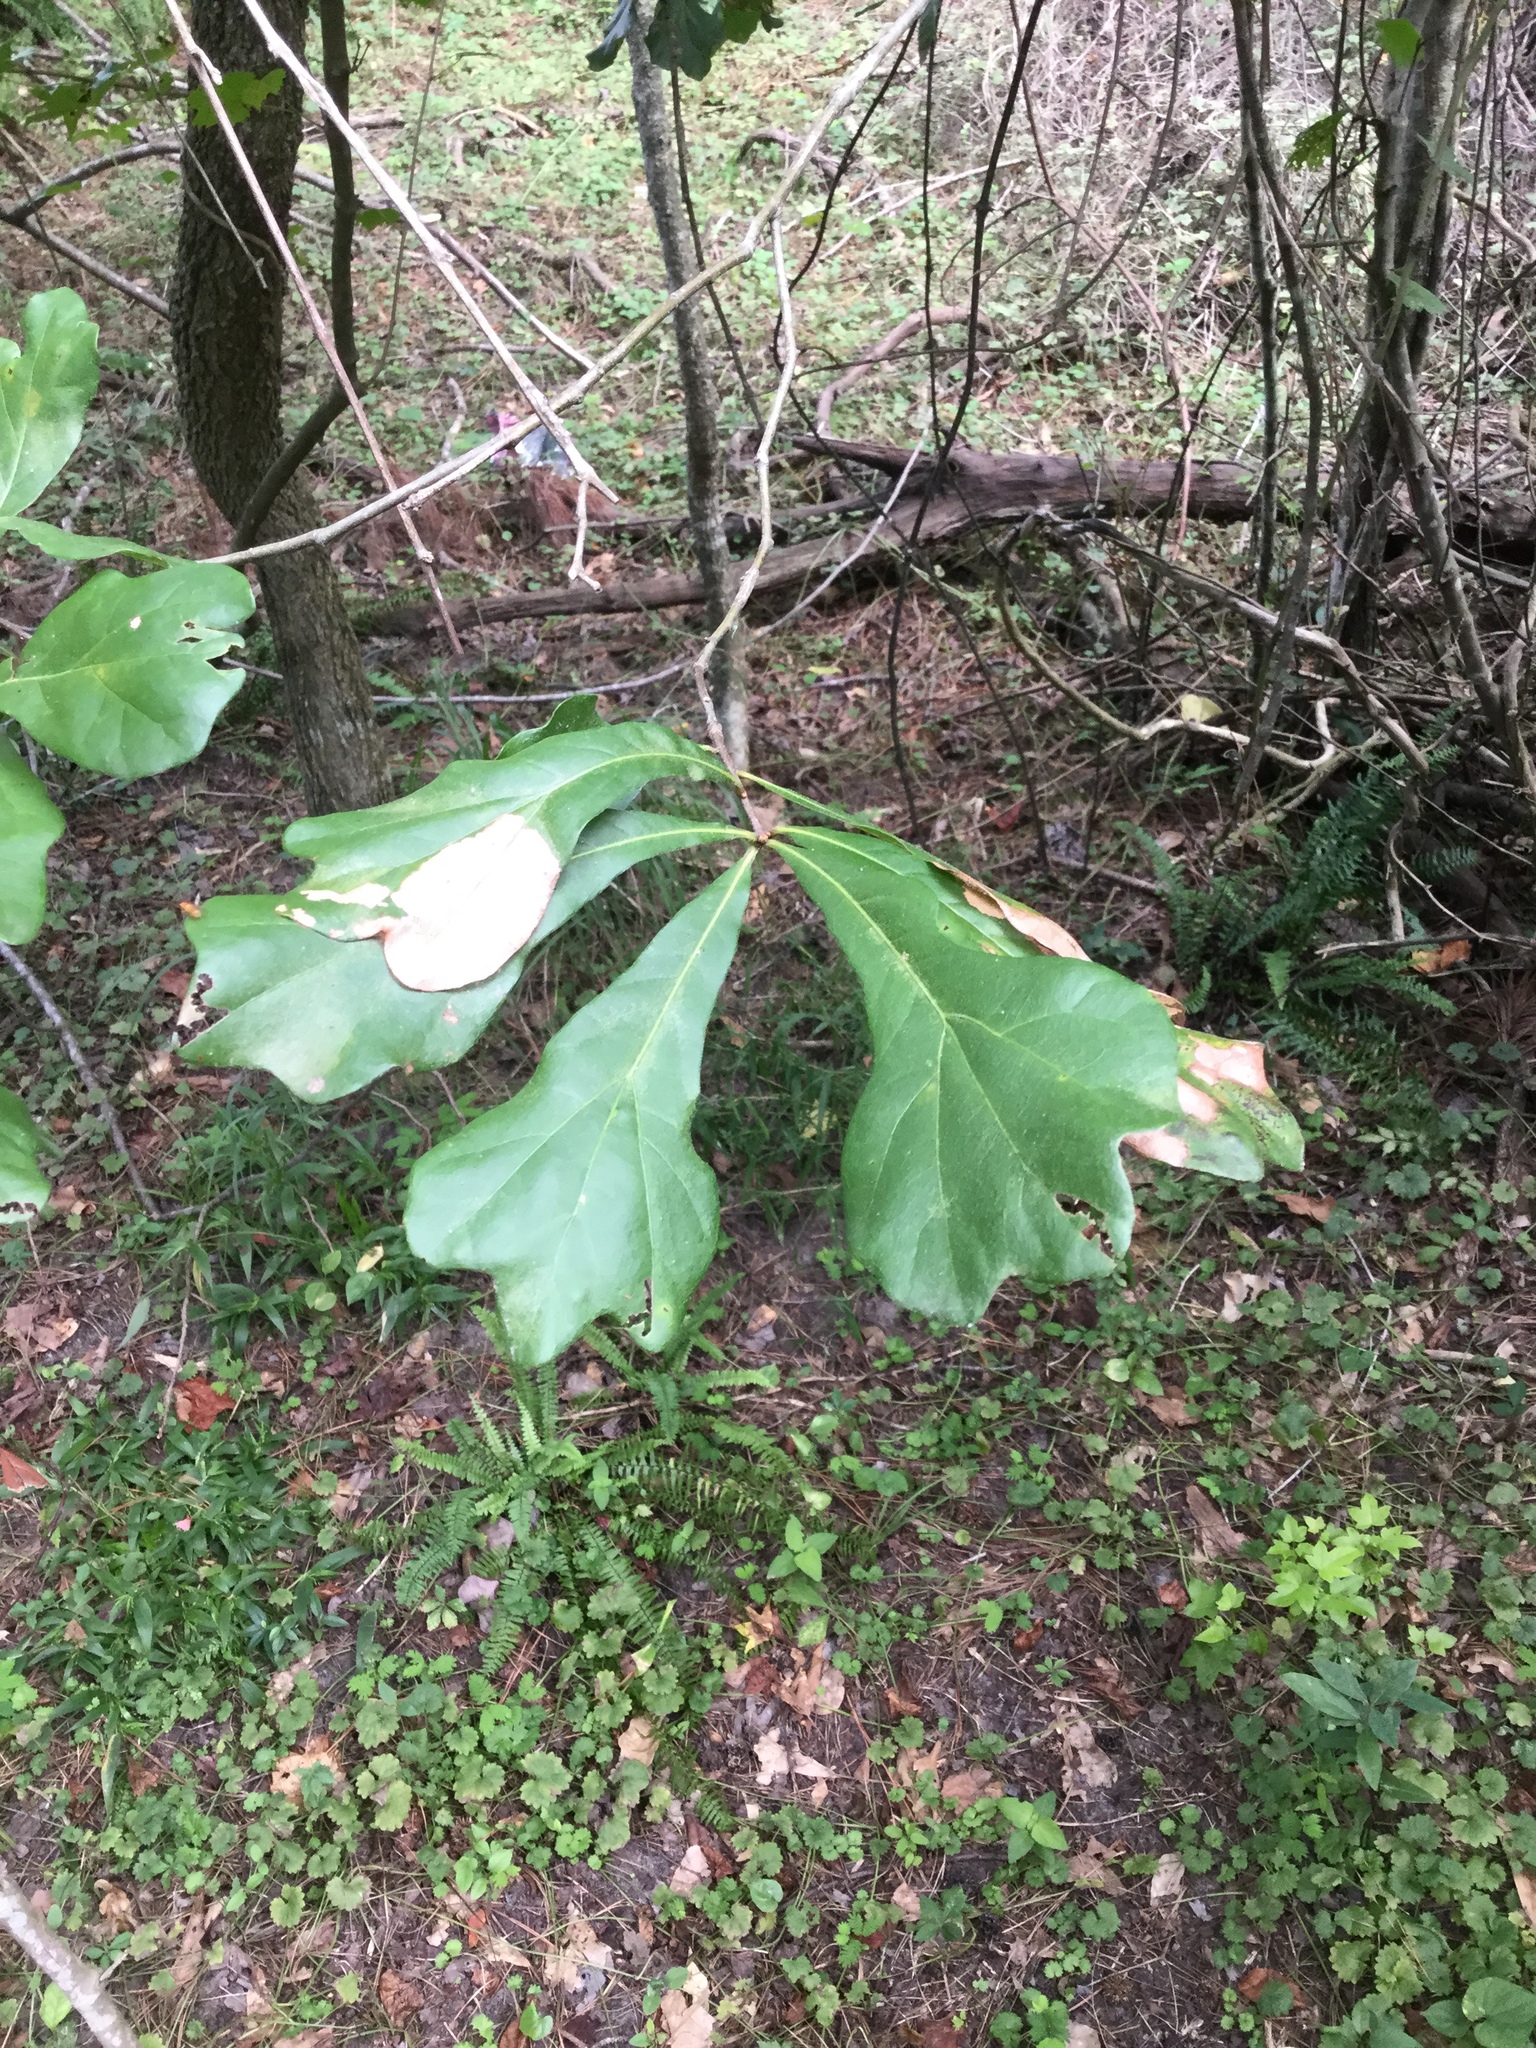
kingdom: Plantae
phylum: Tracheophyta
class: Magnoliopsida
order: Fagales
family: Fagaceae
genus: Quercus
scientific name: Quercus nigra
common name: Water oak
